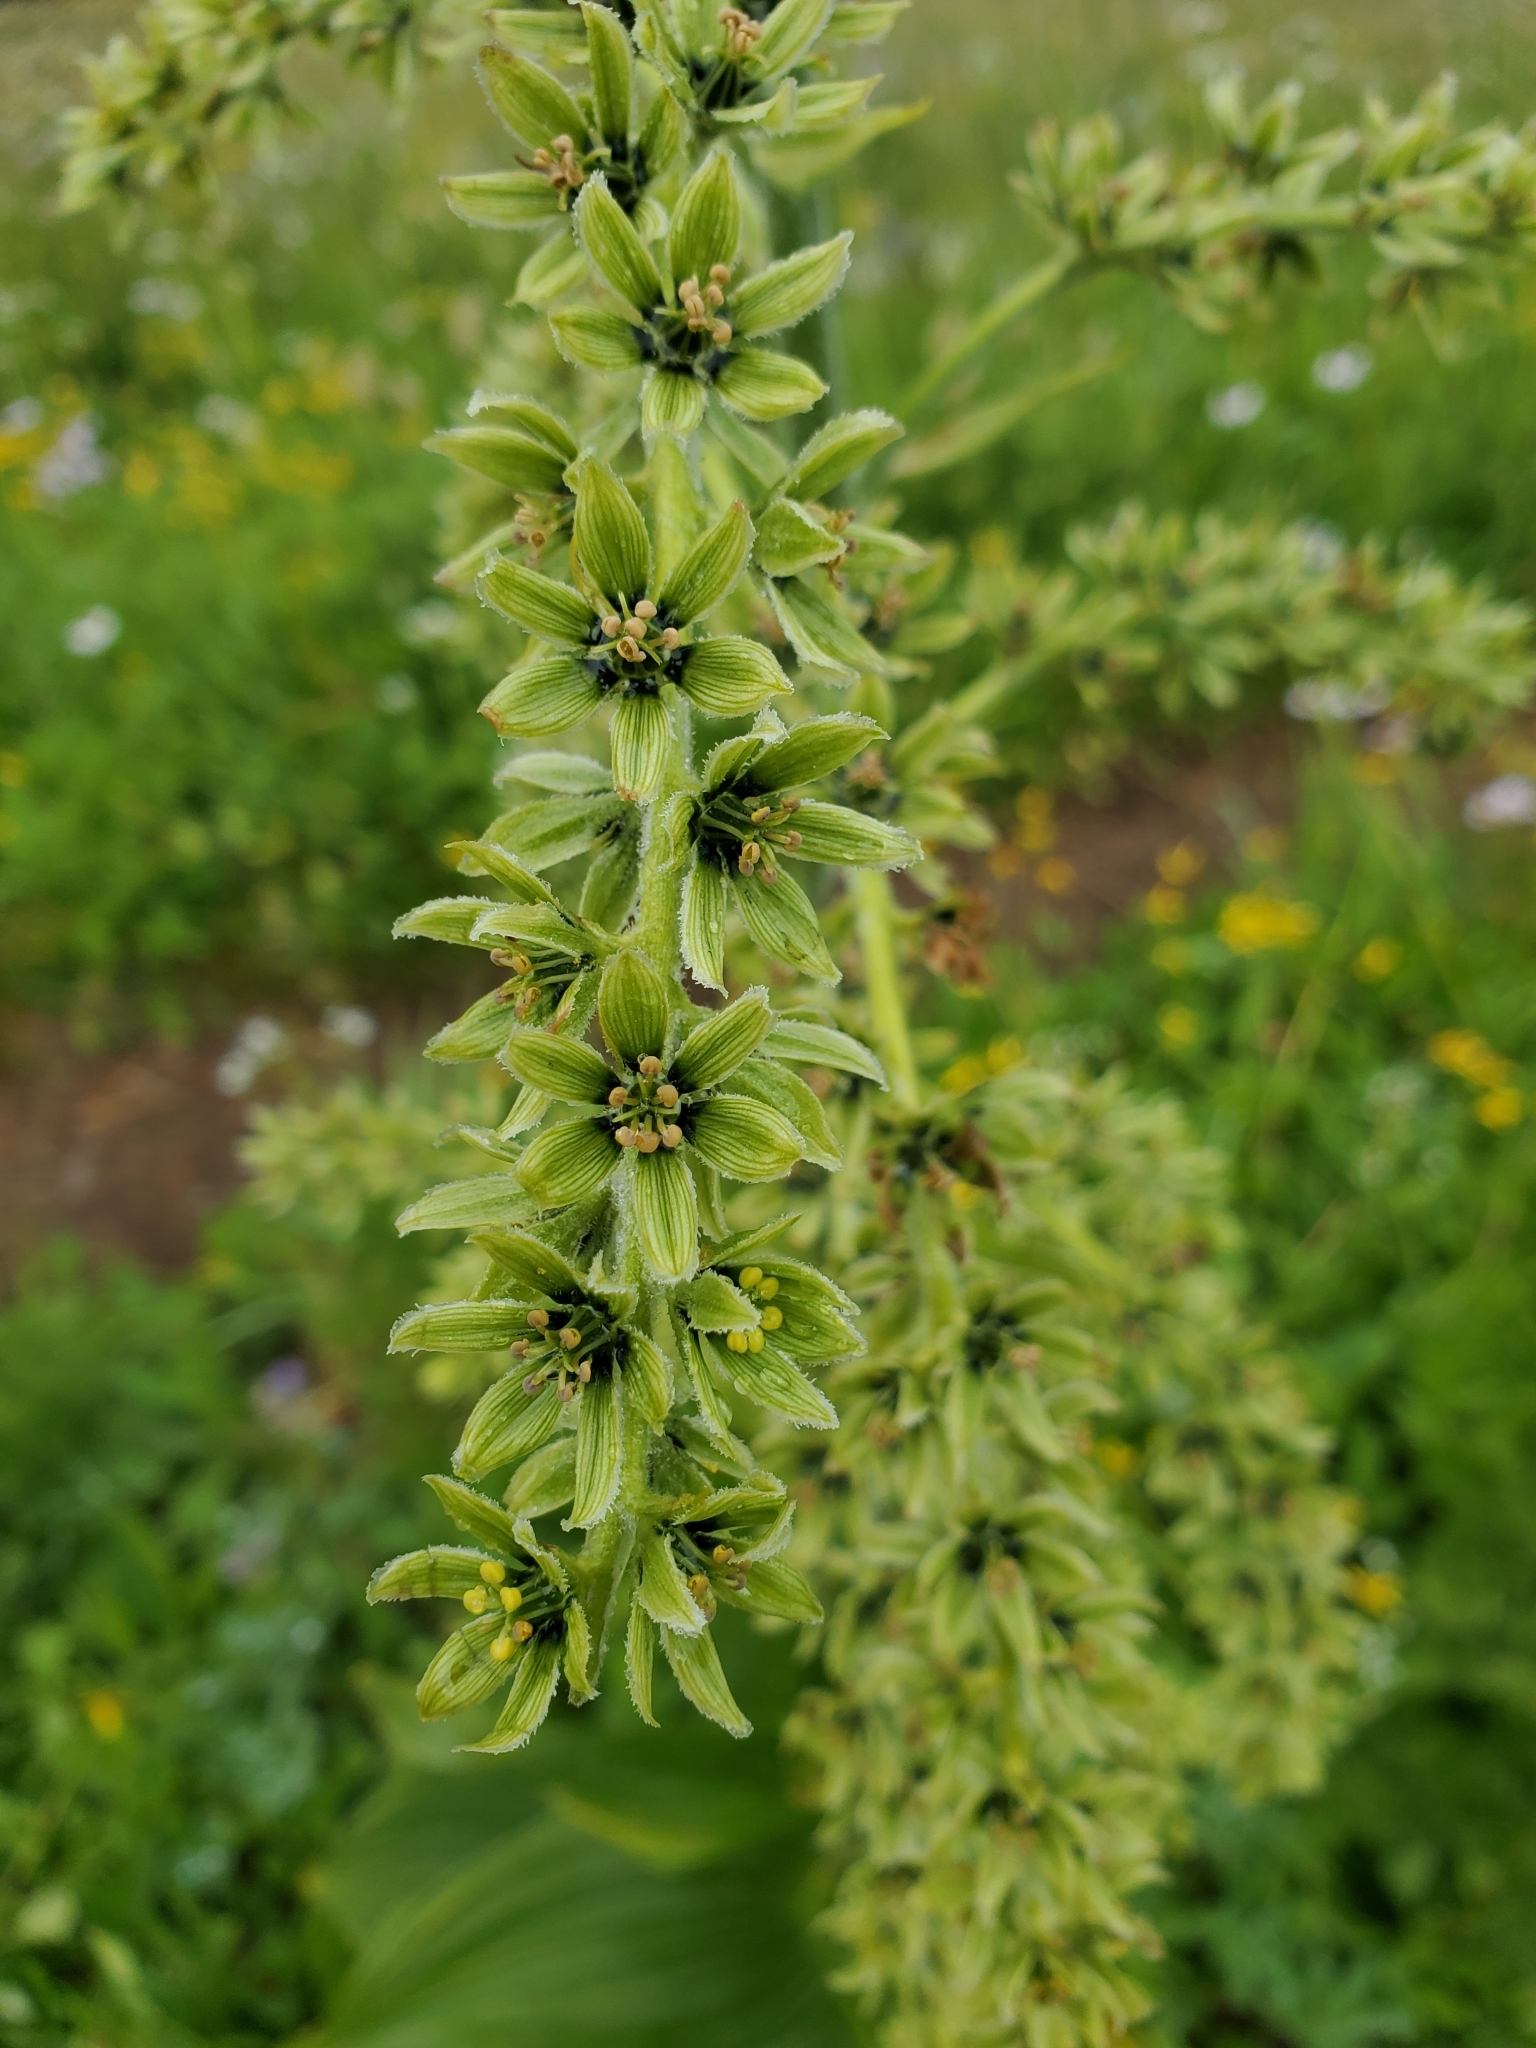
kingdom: Plantae
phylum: Tracheophyta
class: Liliopsida
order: Liliales
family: Melanthiaceae
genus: Veratrum
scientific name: Veratrum viride
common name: American false hellebore
